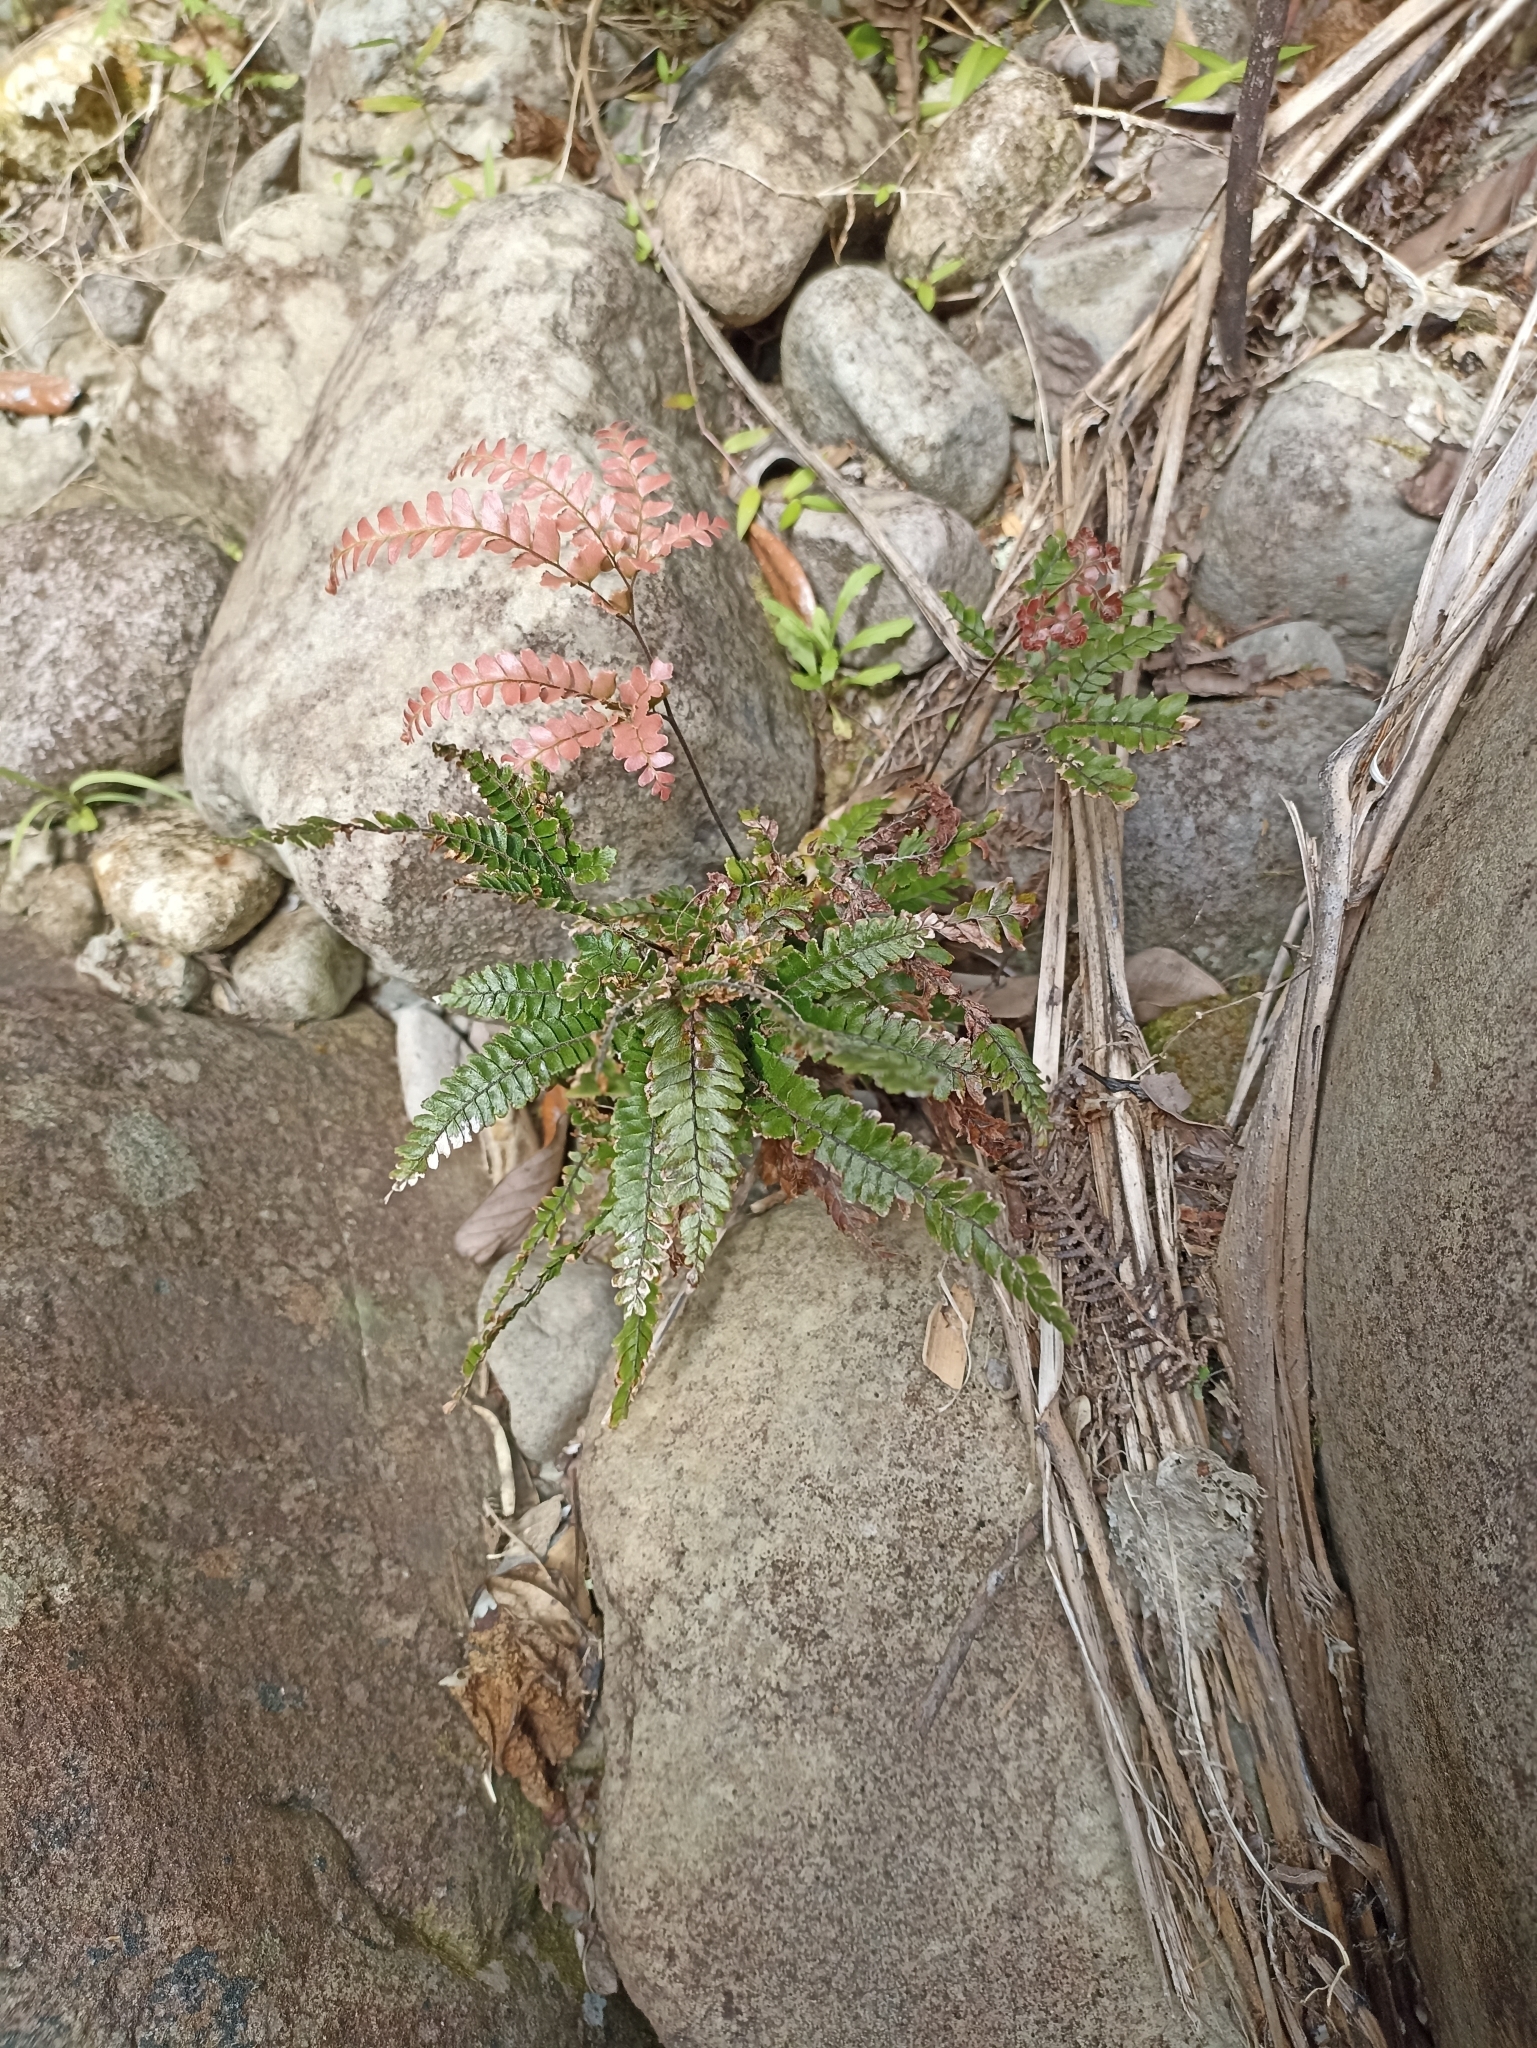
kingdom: Plantae
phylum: Tracheophyta
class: Polypodiopsida
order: Polypodiales
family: Pteridaceae
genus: Adiantum
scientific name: Adiantum hispidulum
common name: Rough maidenhair
